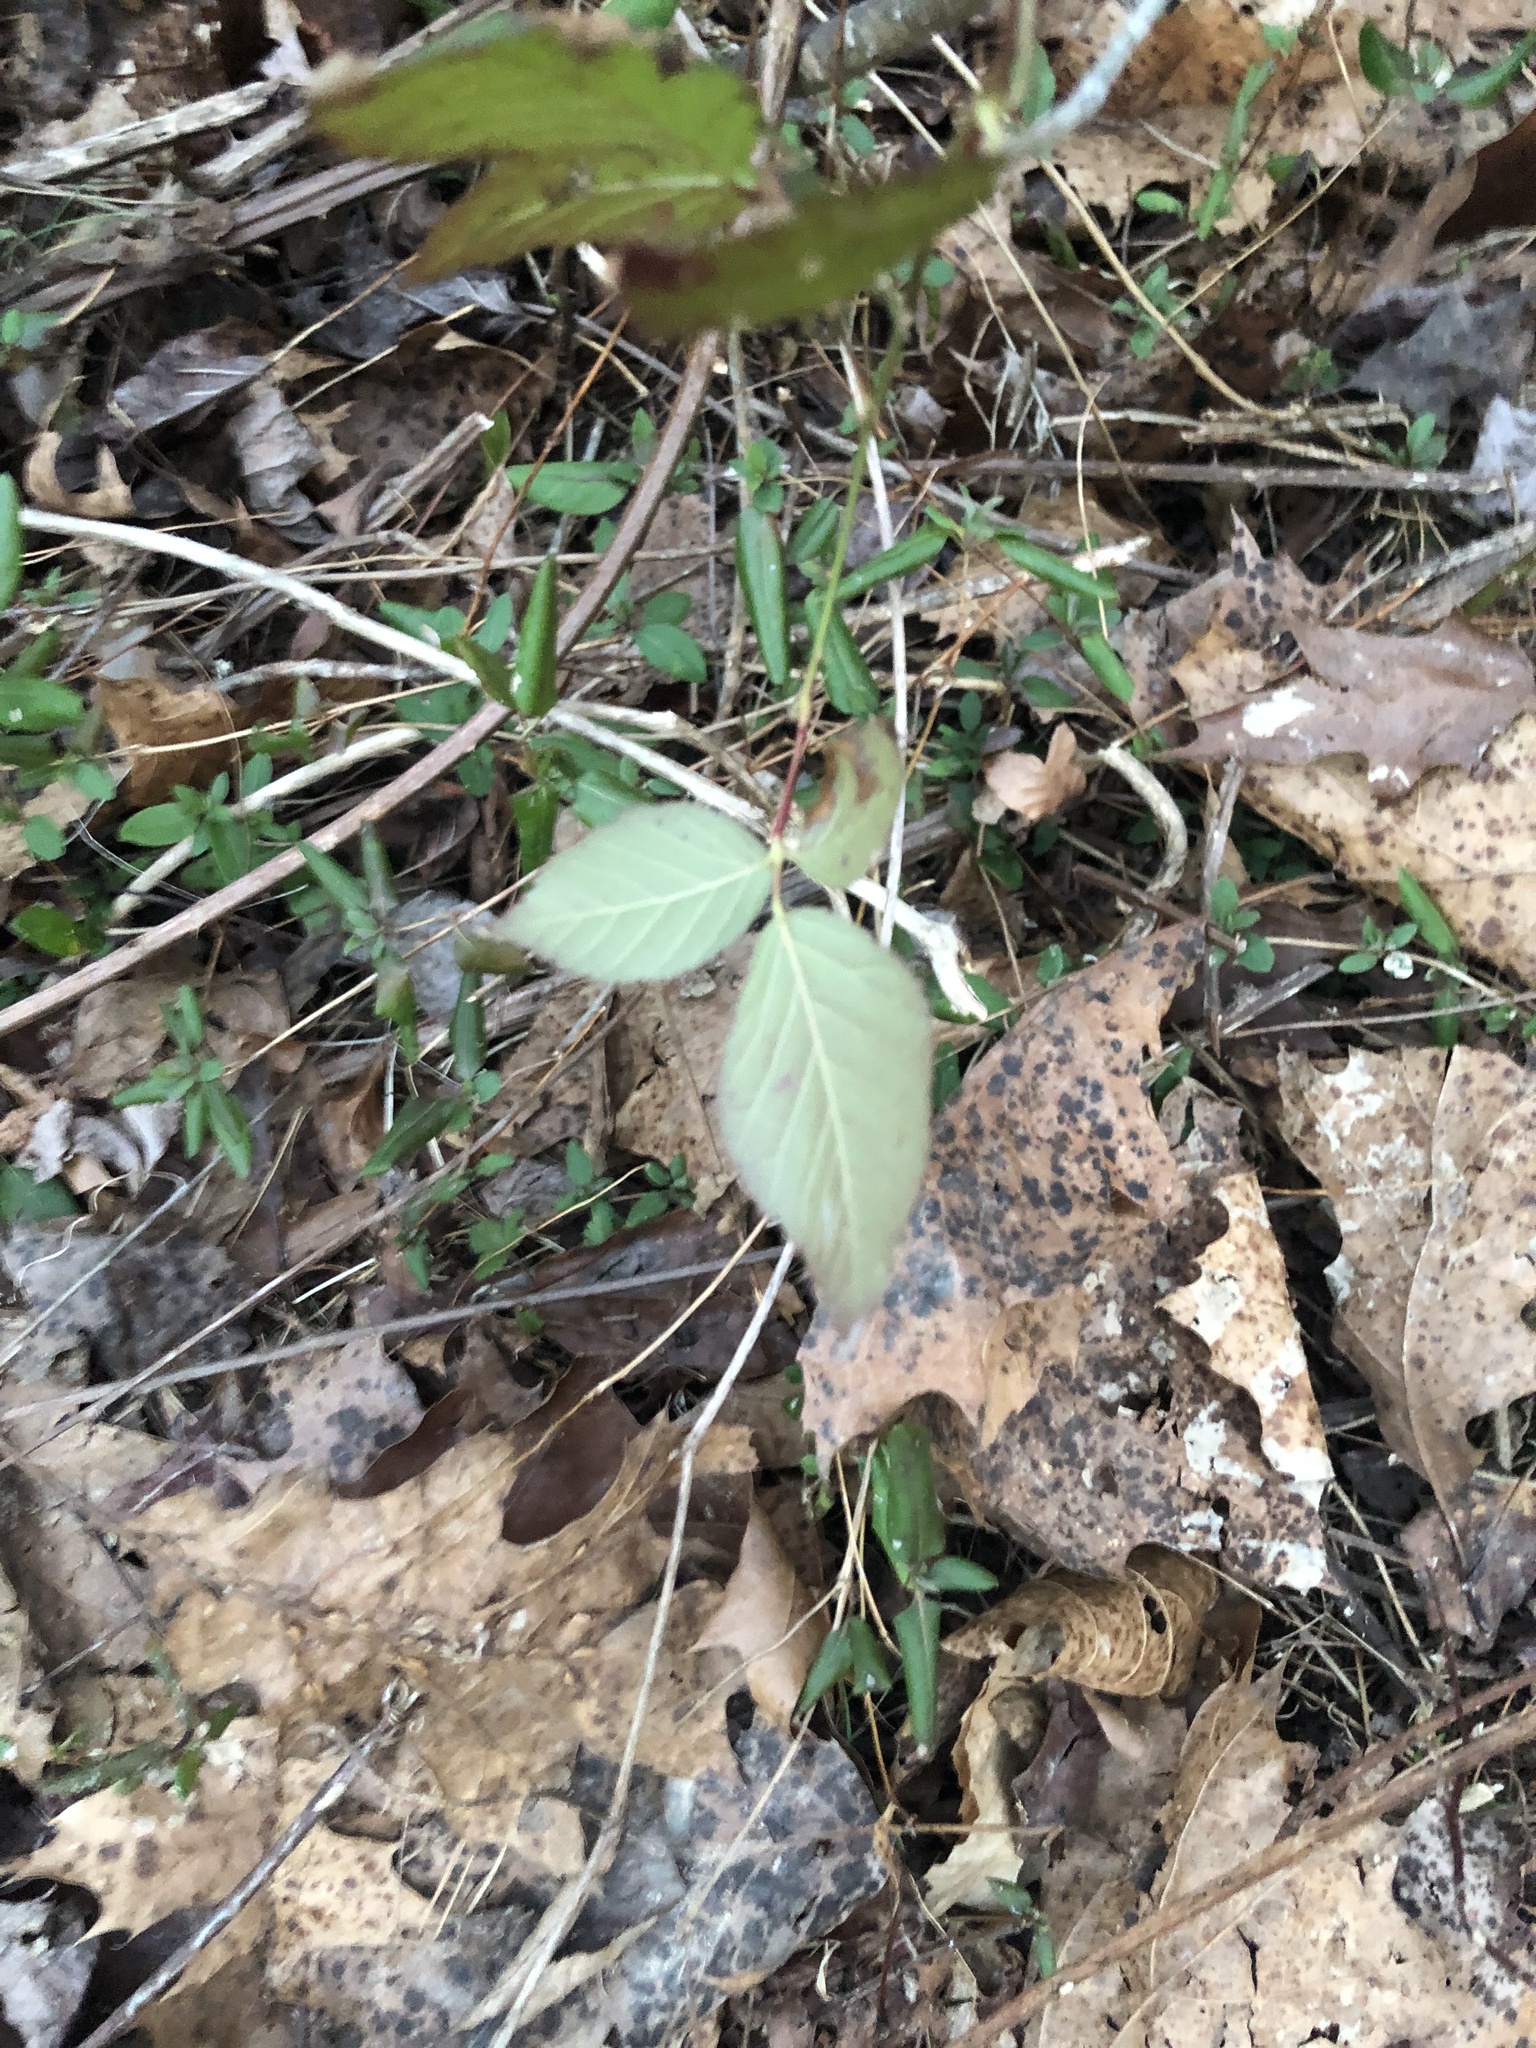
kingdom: Plantae
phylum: Tracheophyta
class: Magnoliopsida
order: Sapindales
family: Anacardiaceae
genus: Toxicodendron
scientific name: Toxicodendron radicans
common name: Poison ivy
